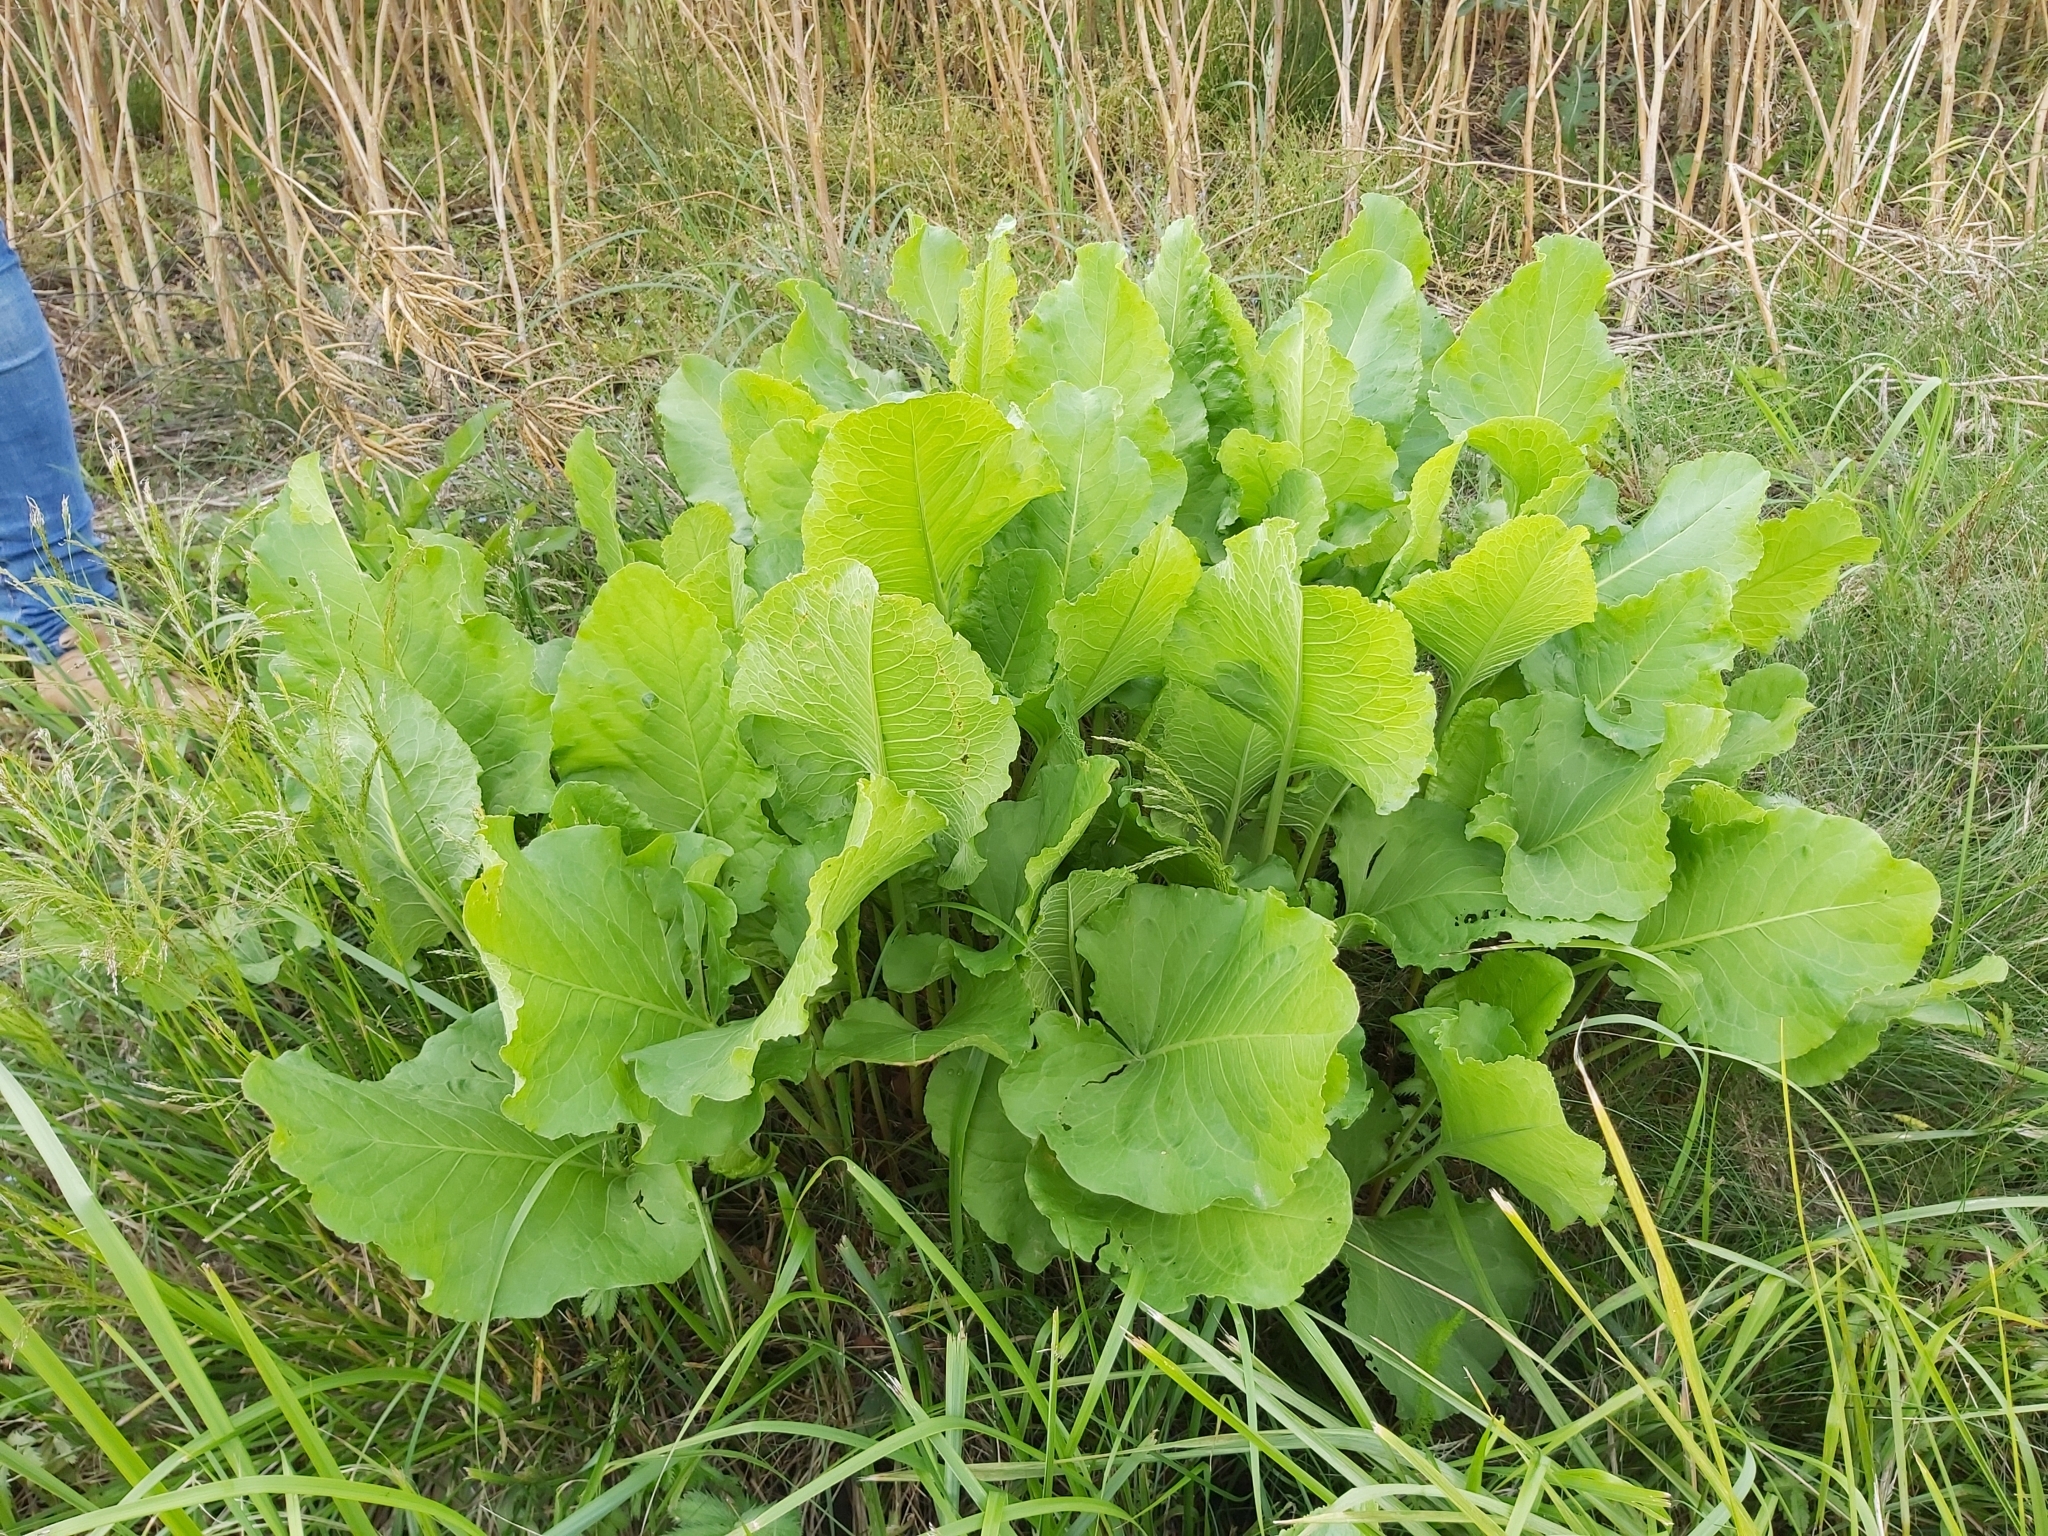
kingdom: Plantae
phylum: Tracheophyta
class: Magnoliopsida
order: Caryophyllales
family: Polygonaceae
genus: Rumex
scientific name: Rumex confertus
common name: Russian dock
